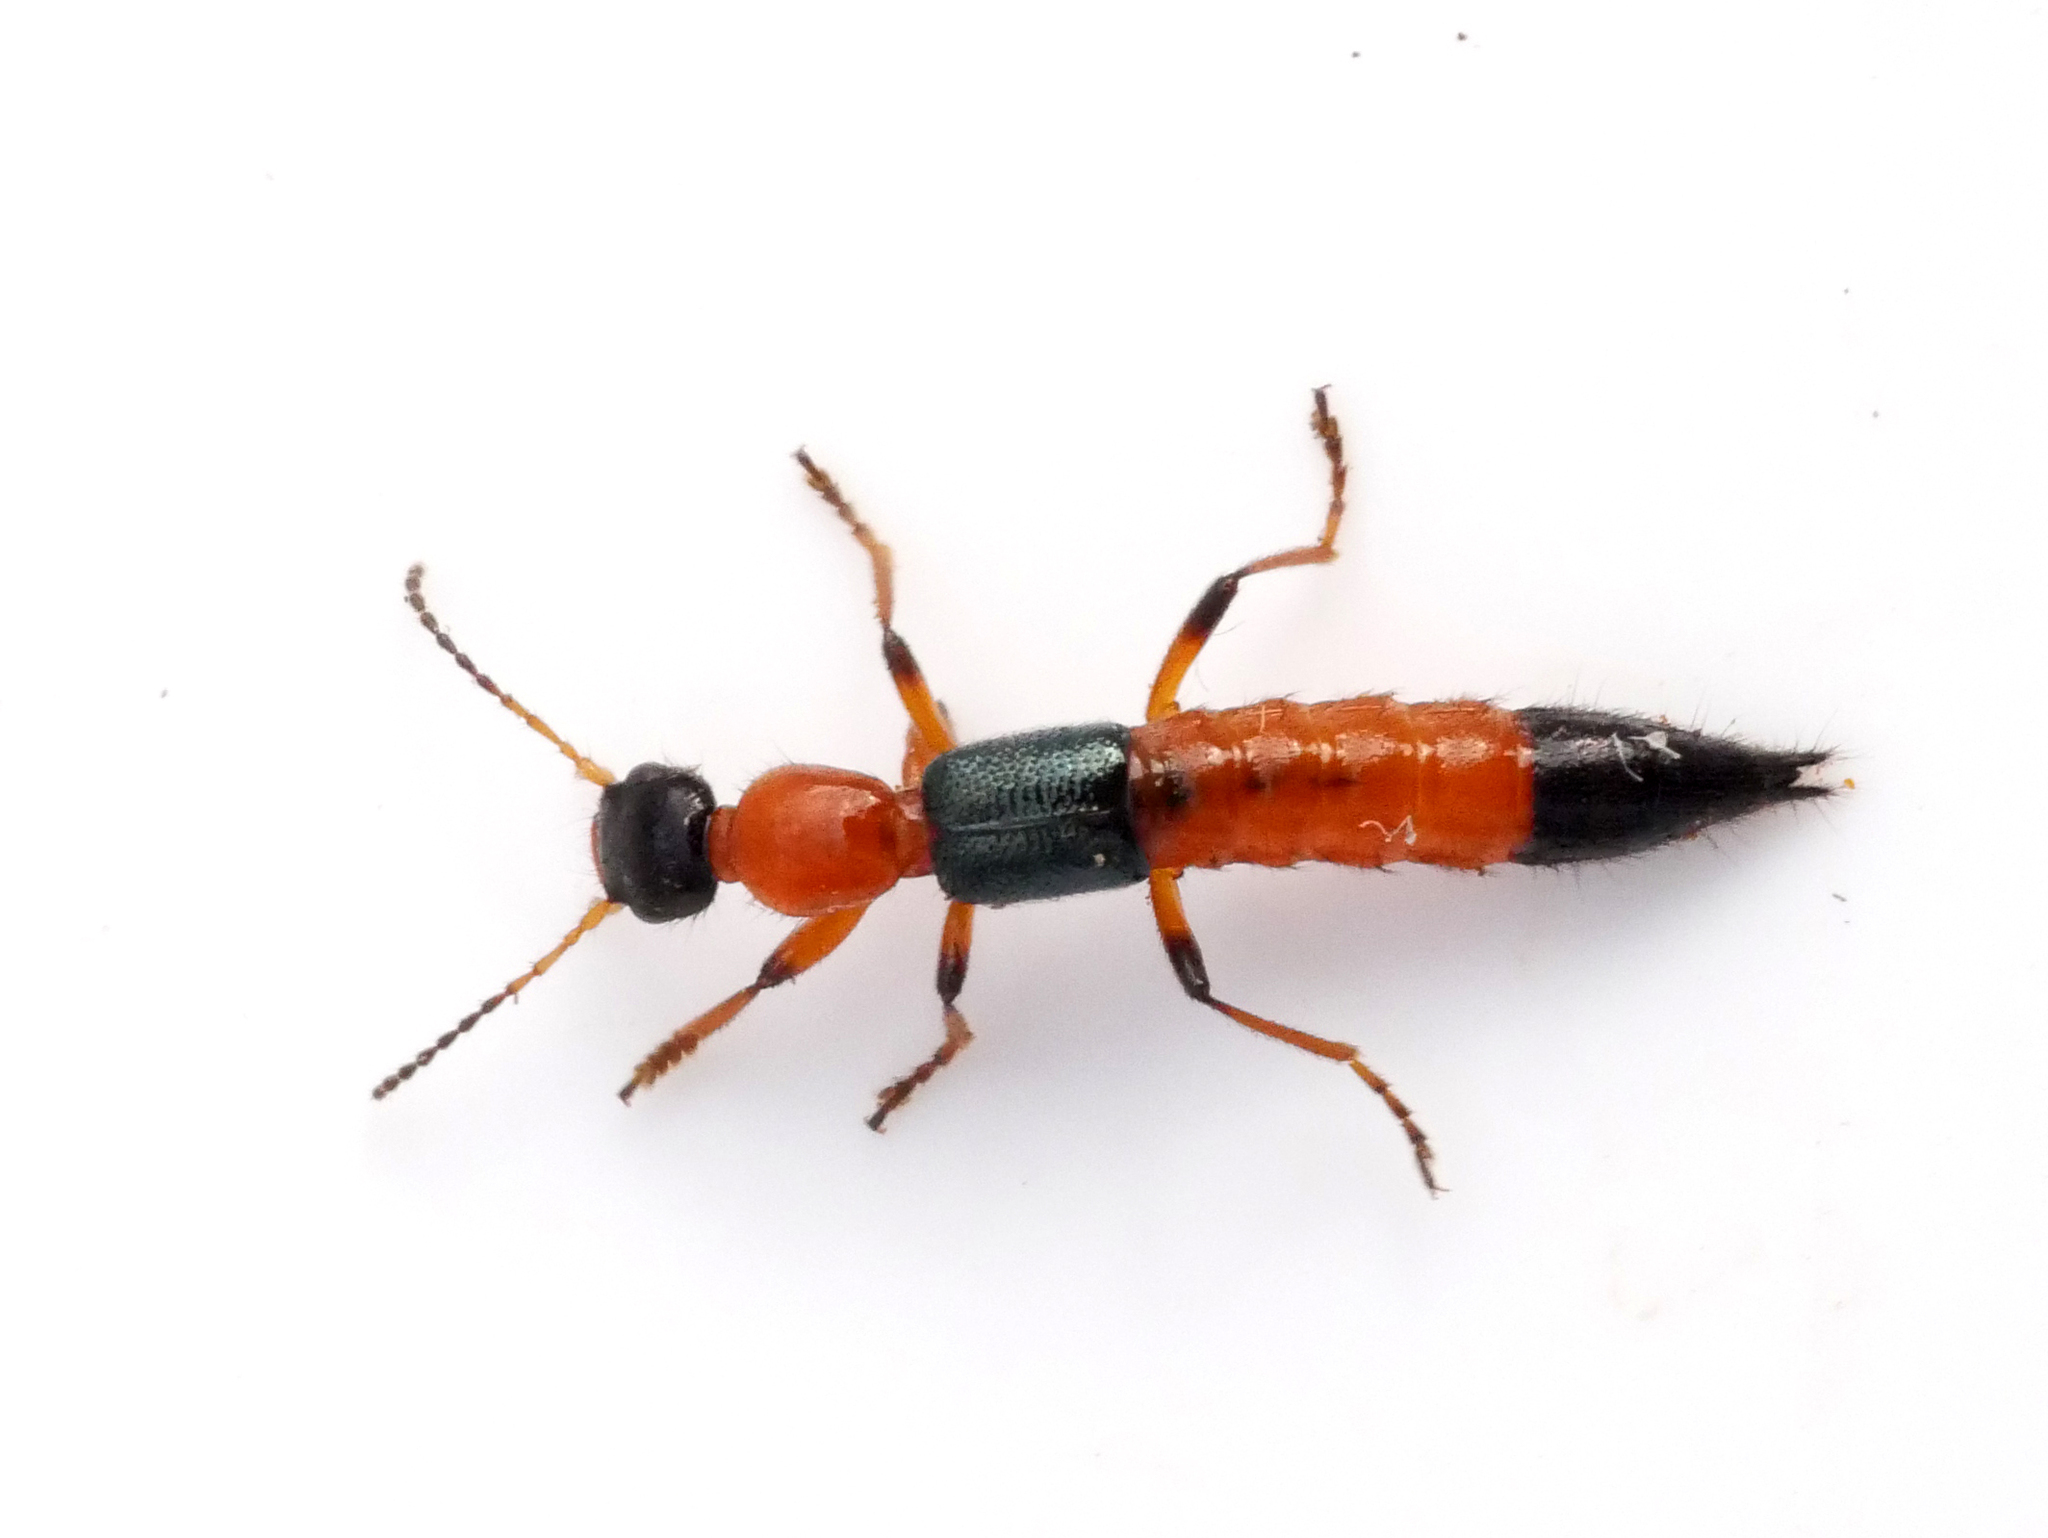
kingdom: Animalia
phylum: Arthropoda
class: Insecta
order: Coleoptera
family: Staphylinidae
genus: Paederus
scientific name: Paederus riparius
